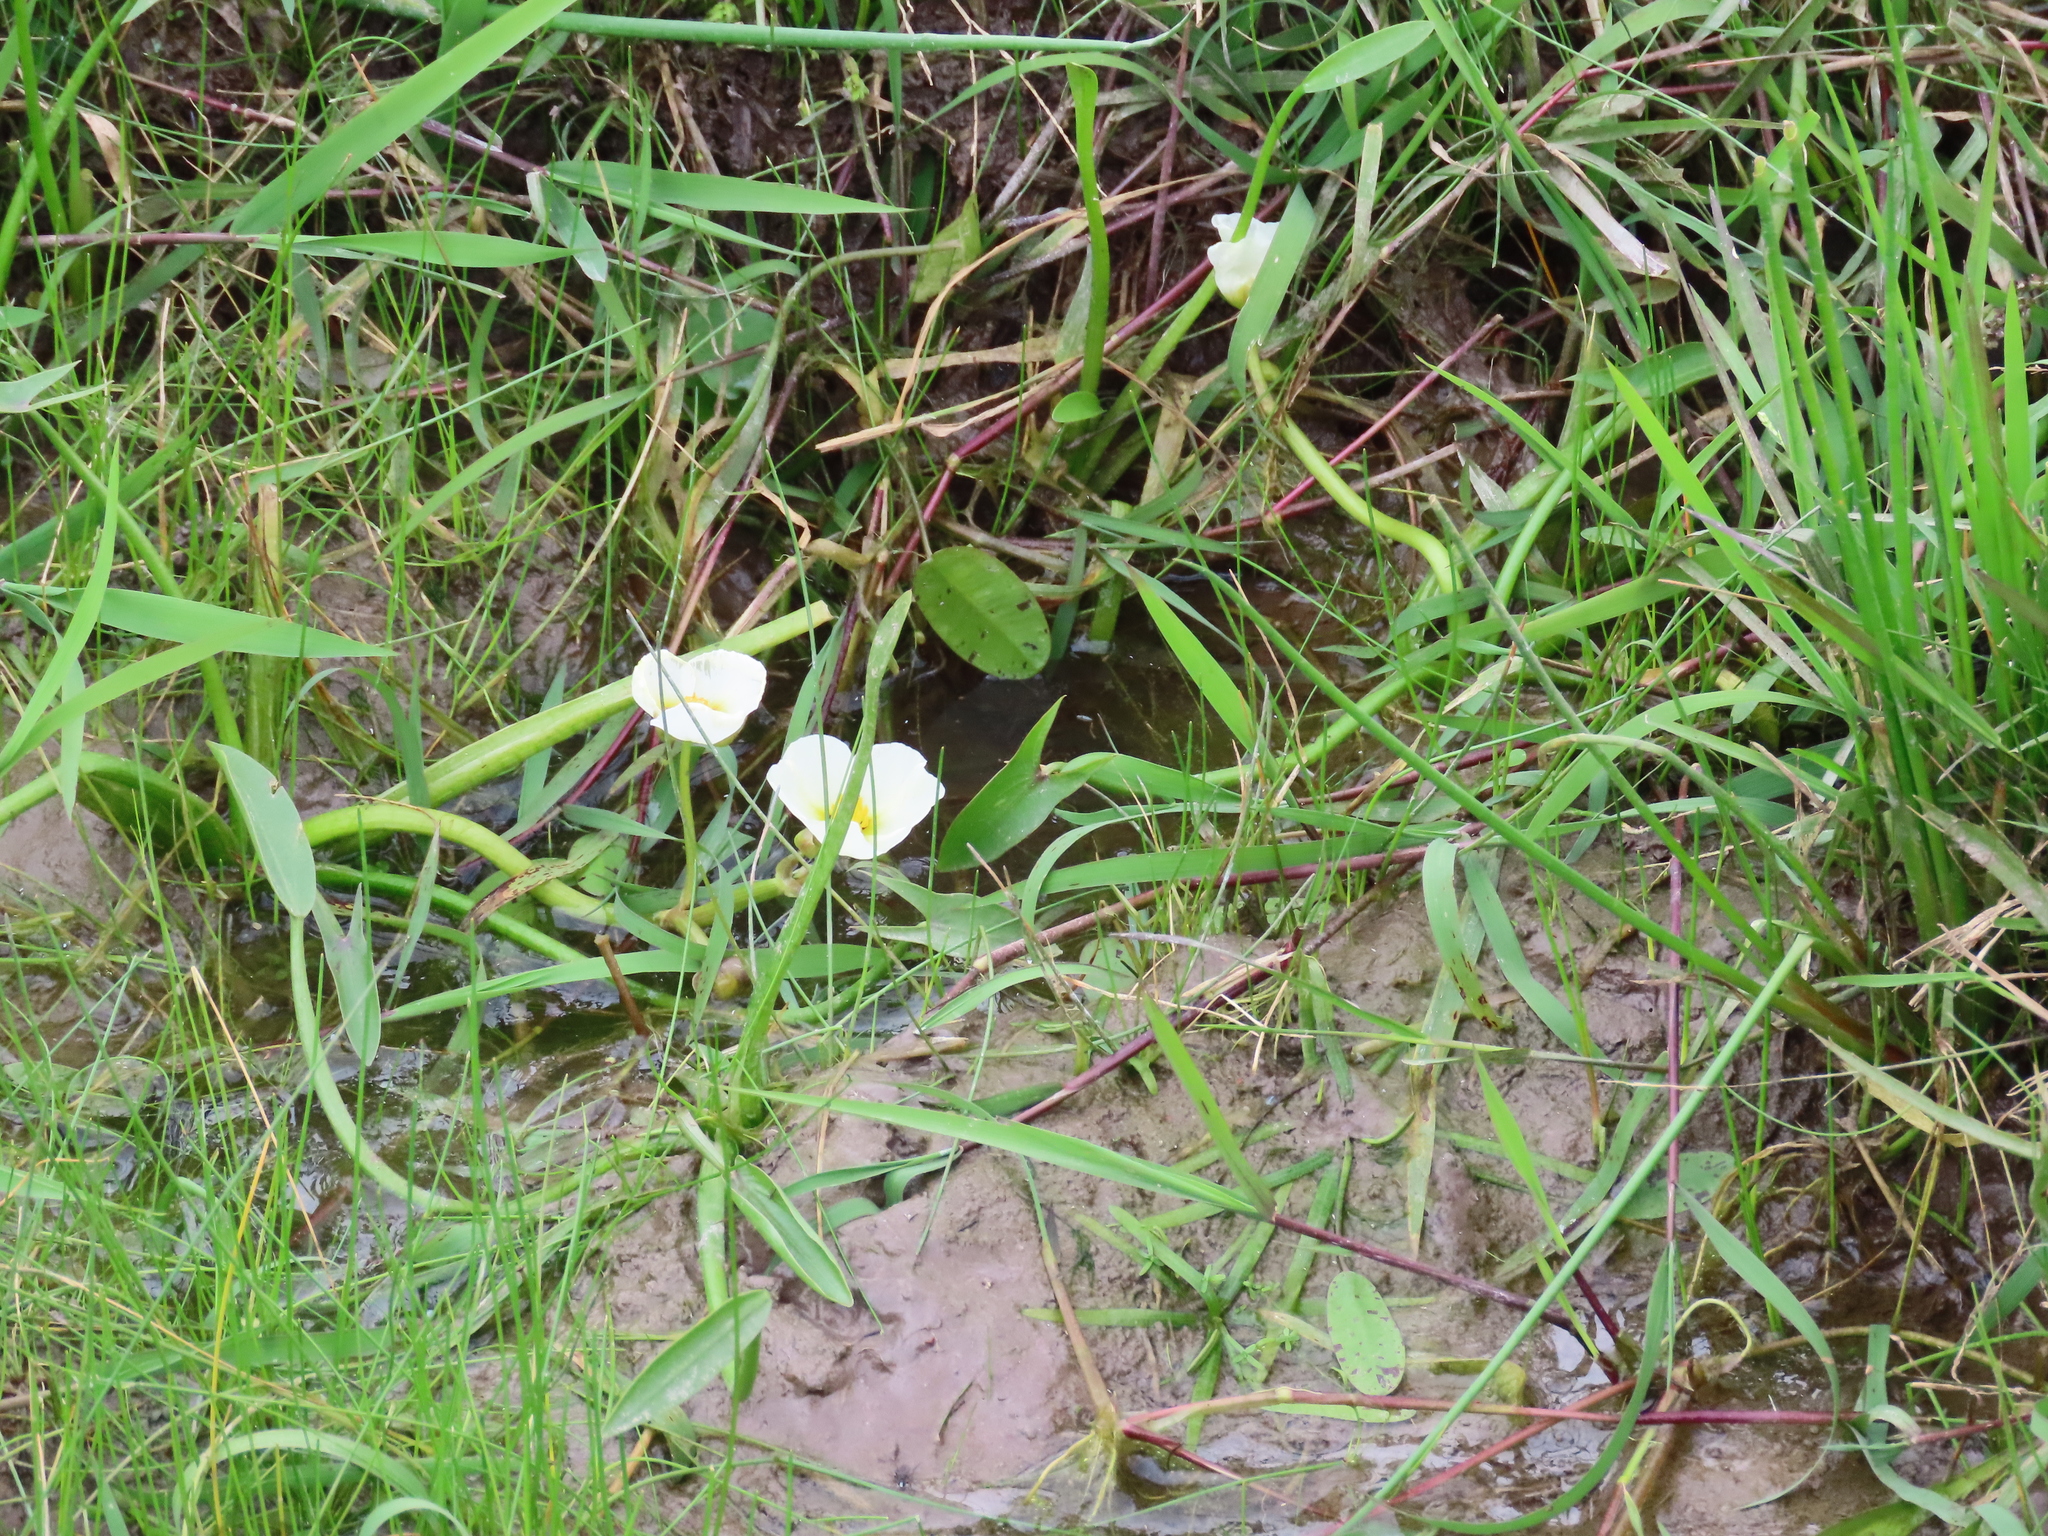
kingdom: Plantae
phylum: Tracheophyta
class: Liliopsida
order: Alismatales
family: Alismataceae
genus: Sagittaria
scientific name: Sagittaria montevidensis
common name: Giant arrowhead
